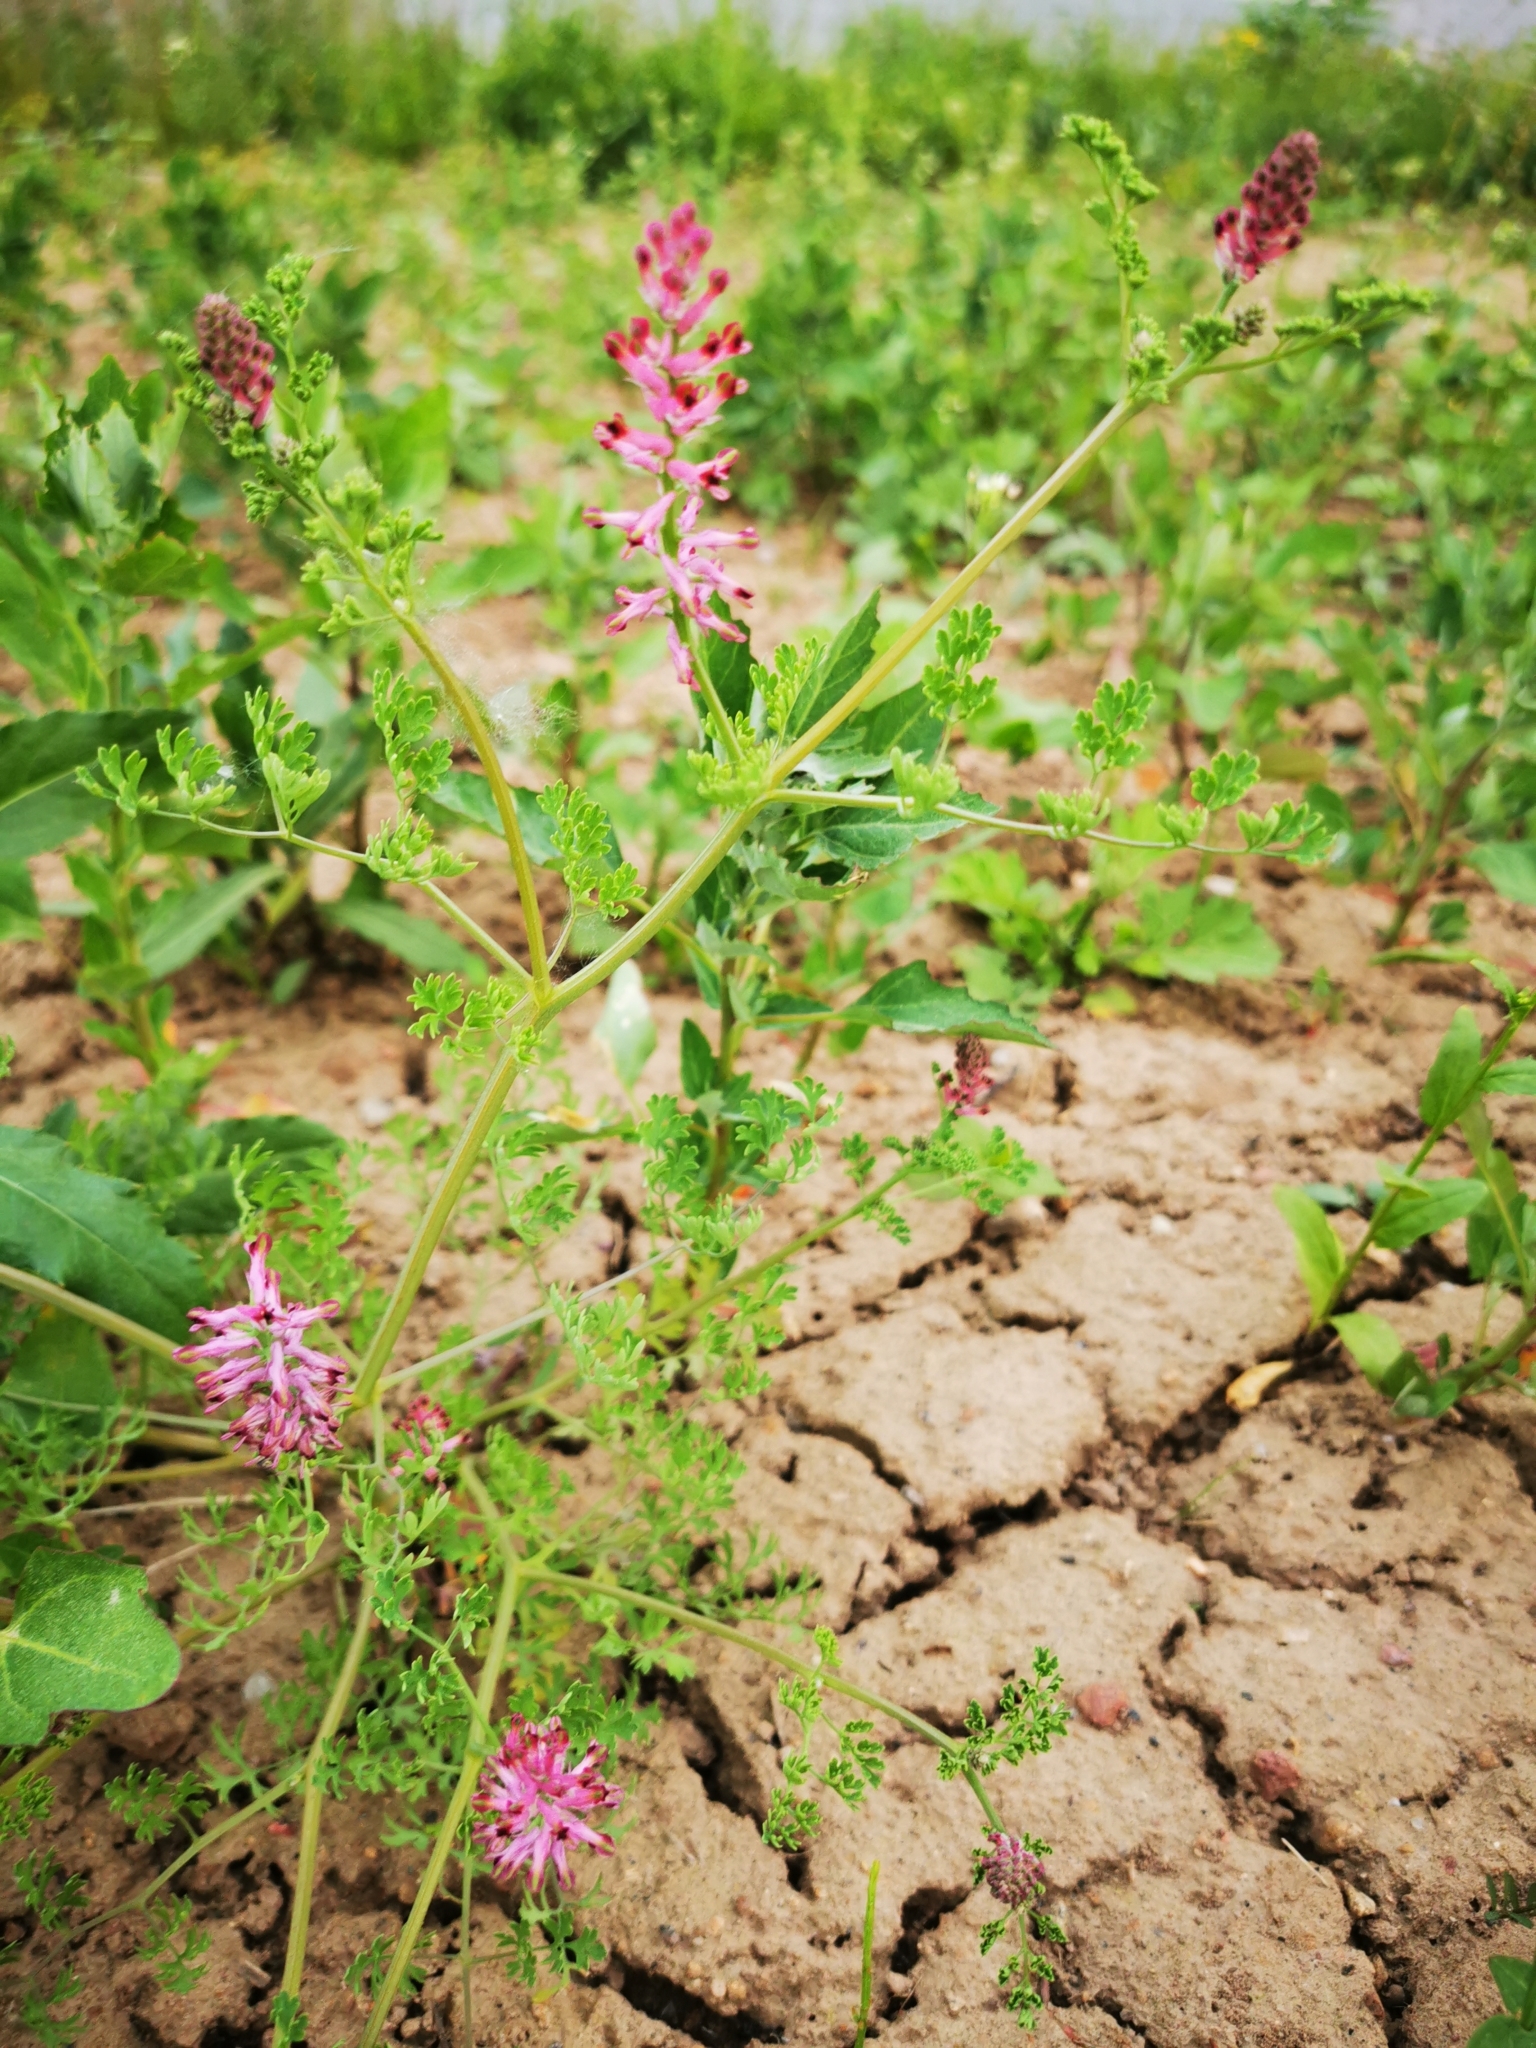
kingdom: Plantae
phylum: Tracheophyta
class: Magnoliopsida
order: Ranunculales
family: Papaveraceae
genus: Fumaria
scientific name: Fumaria officinalis
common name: Common fumitory
